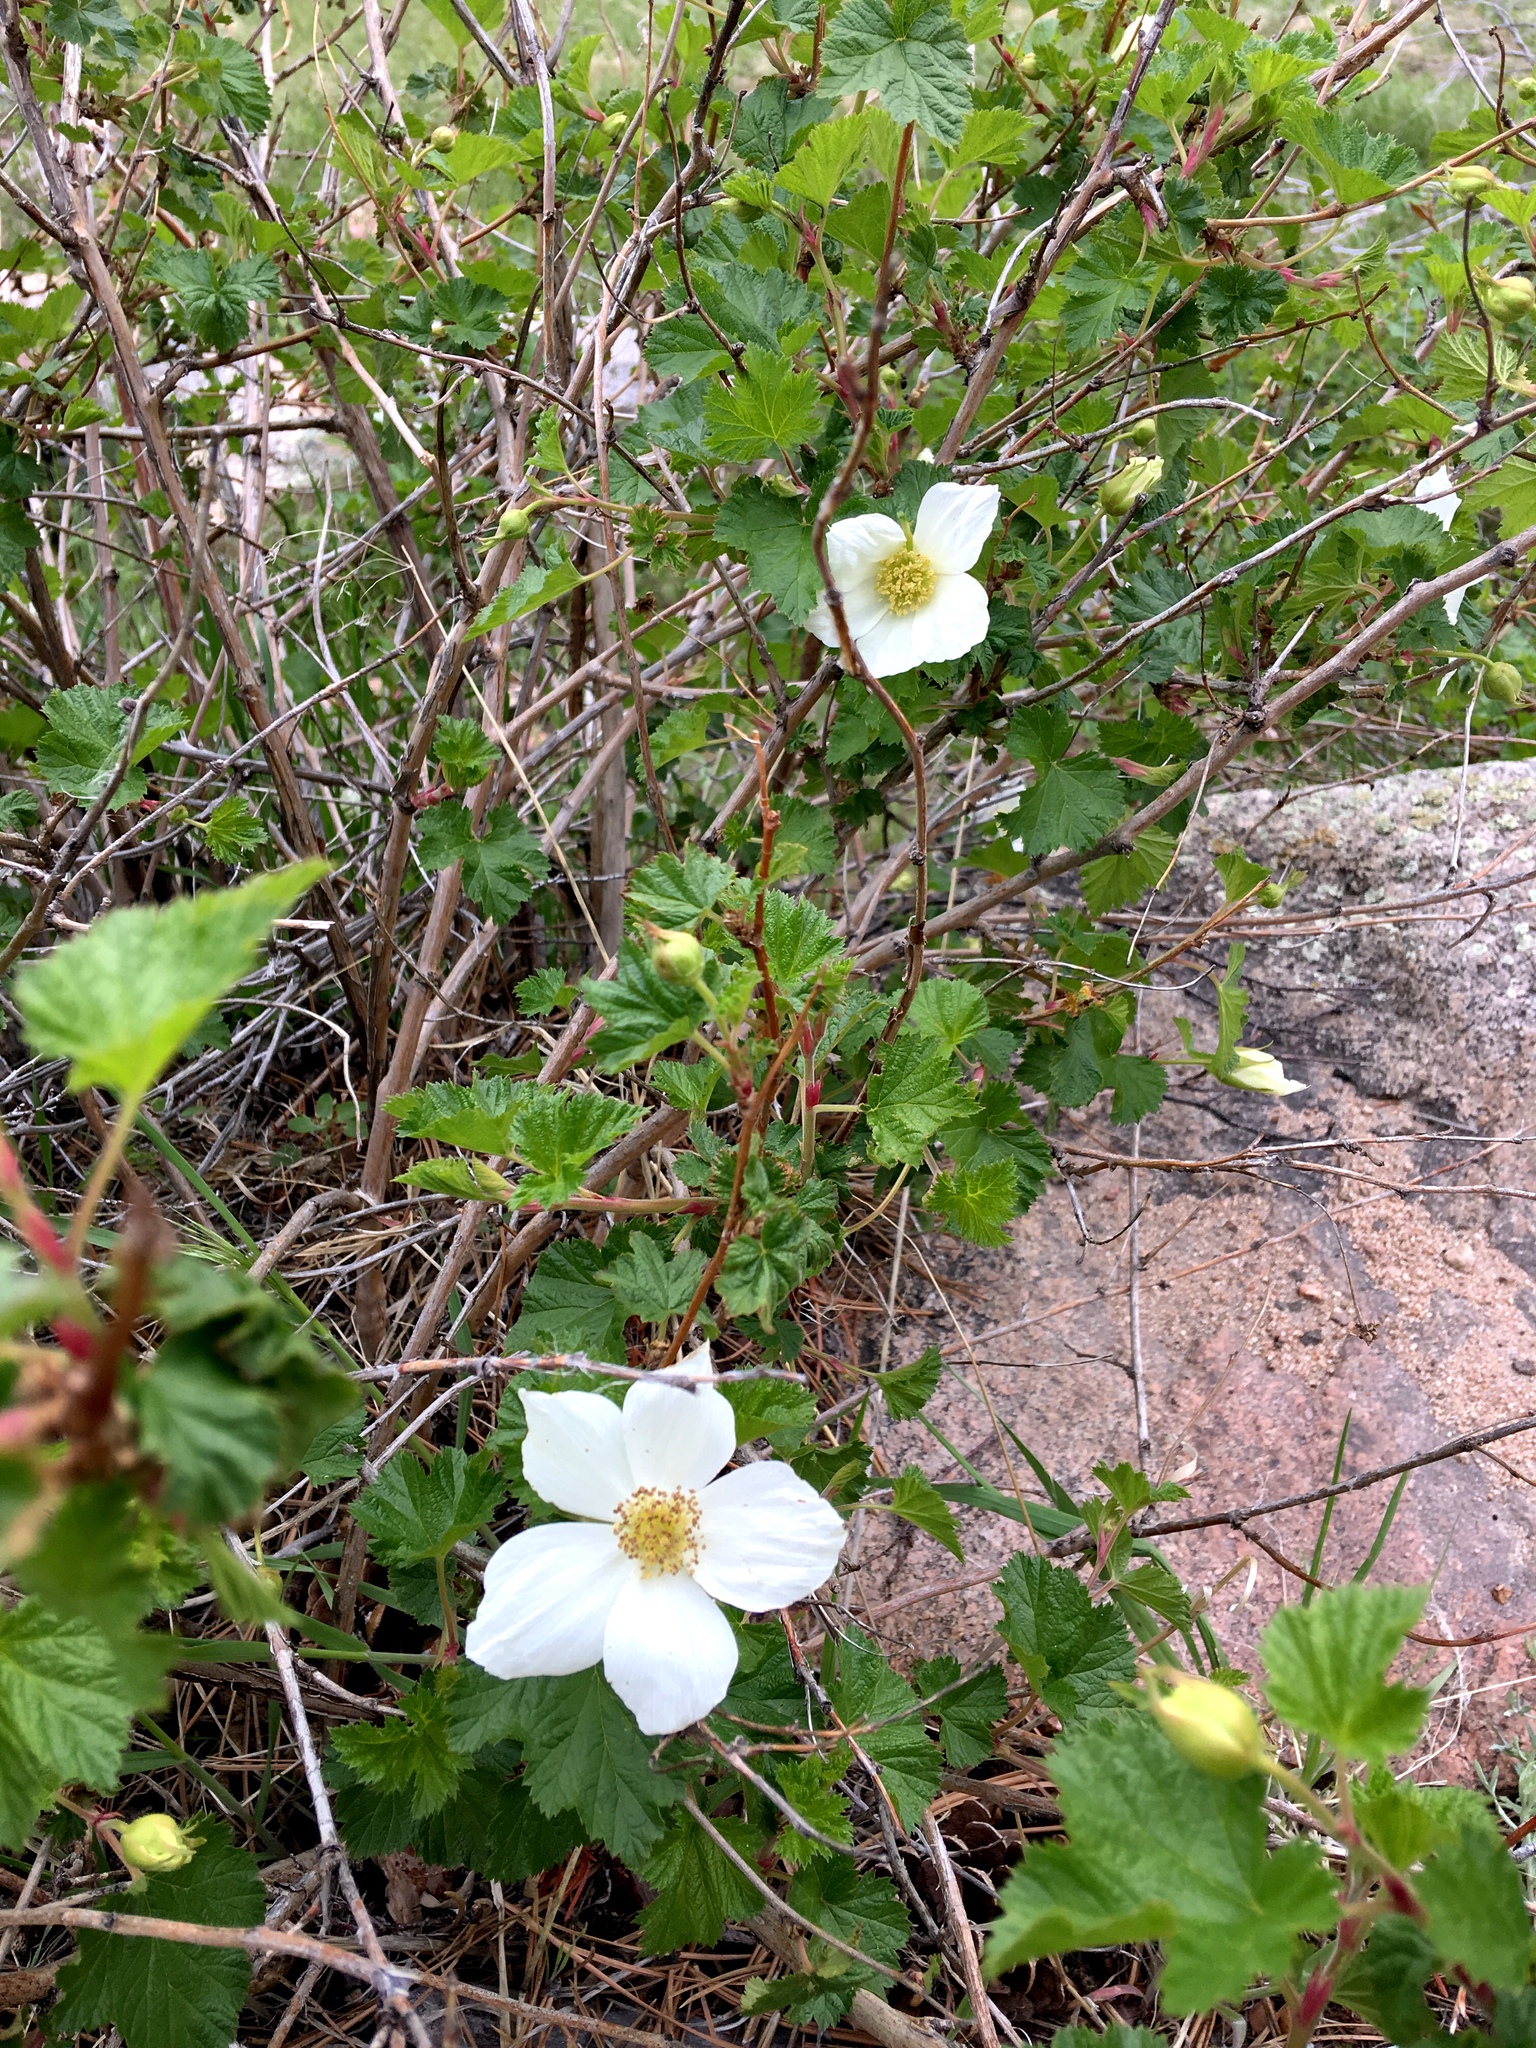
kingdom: Plantae
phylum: Tracheophyta
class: Magnoliopsida
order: Rosales
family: Rosaceae
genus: Rubus
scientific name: Rubus deliciosus
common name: Rocky mountain raspberry
